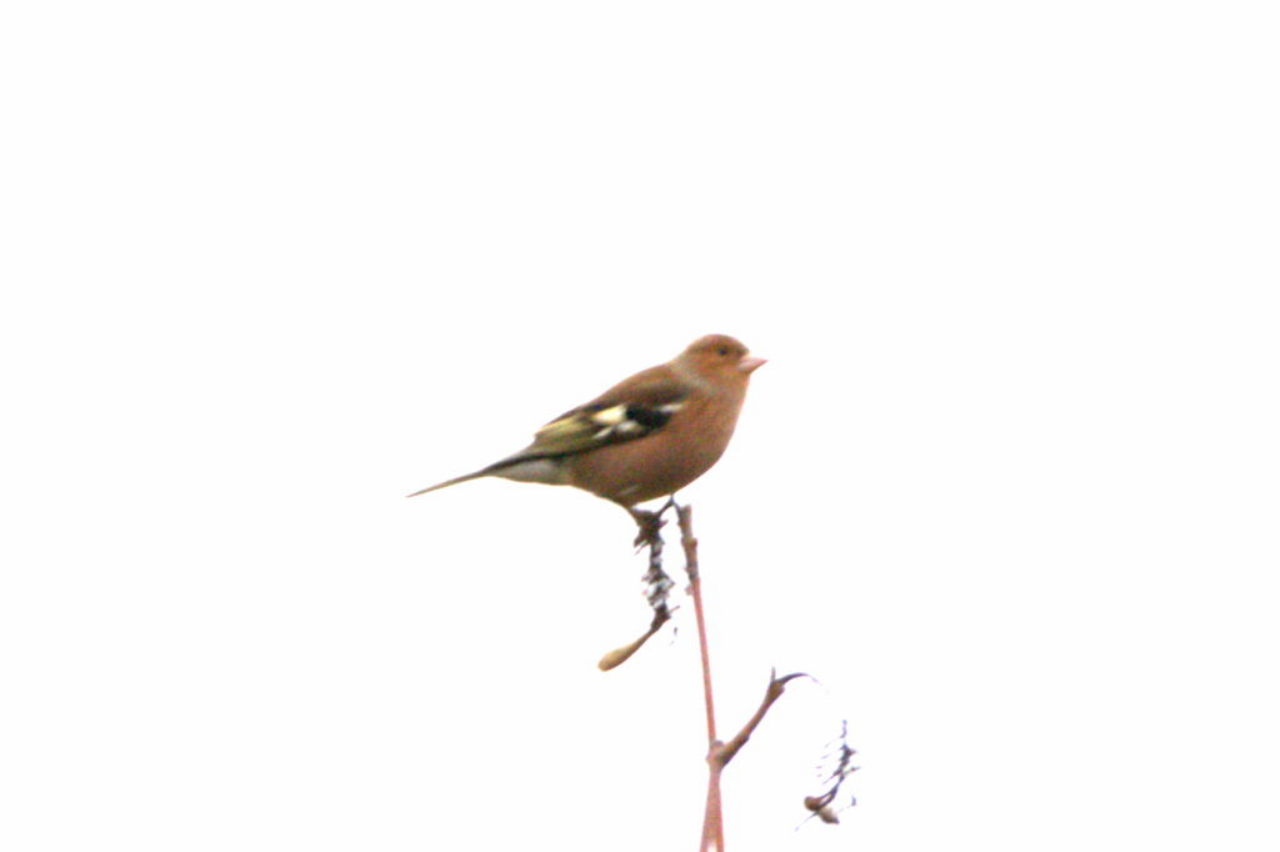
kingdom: Animalia
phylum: Chordata
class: Aves
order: Passeriformes
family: Fringillidae
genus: Fringilla
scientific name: Fringilla coelebs
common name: Common chaffinch
